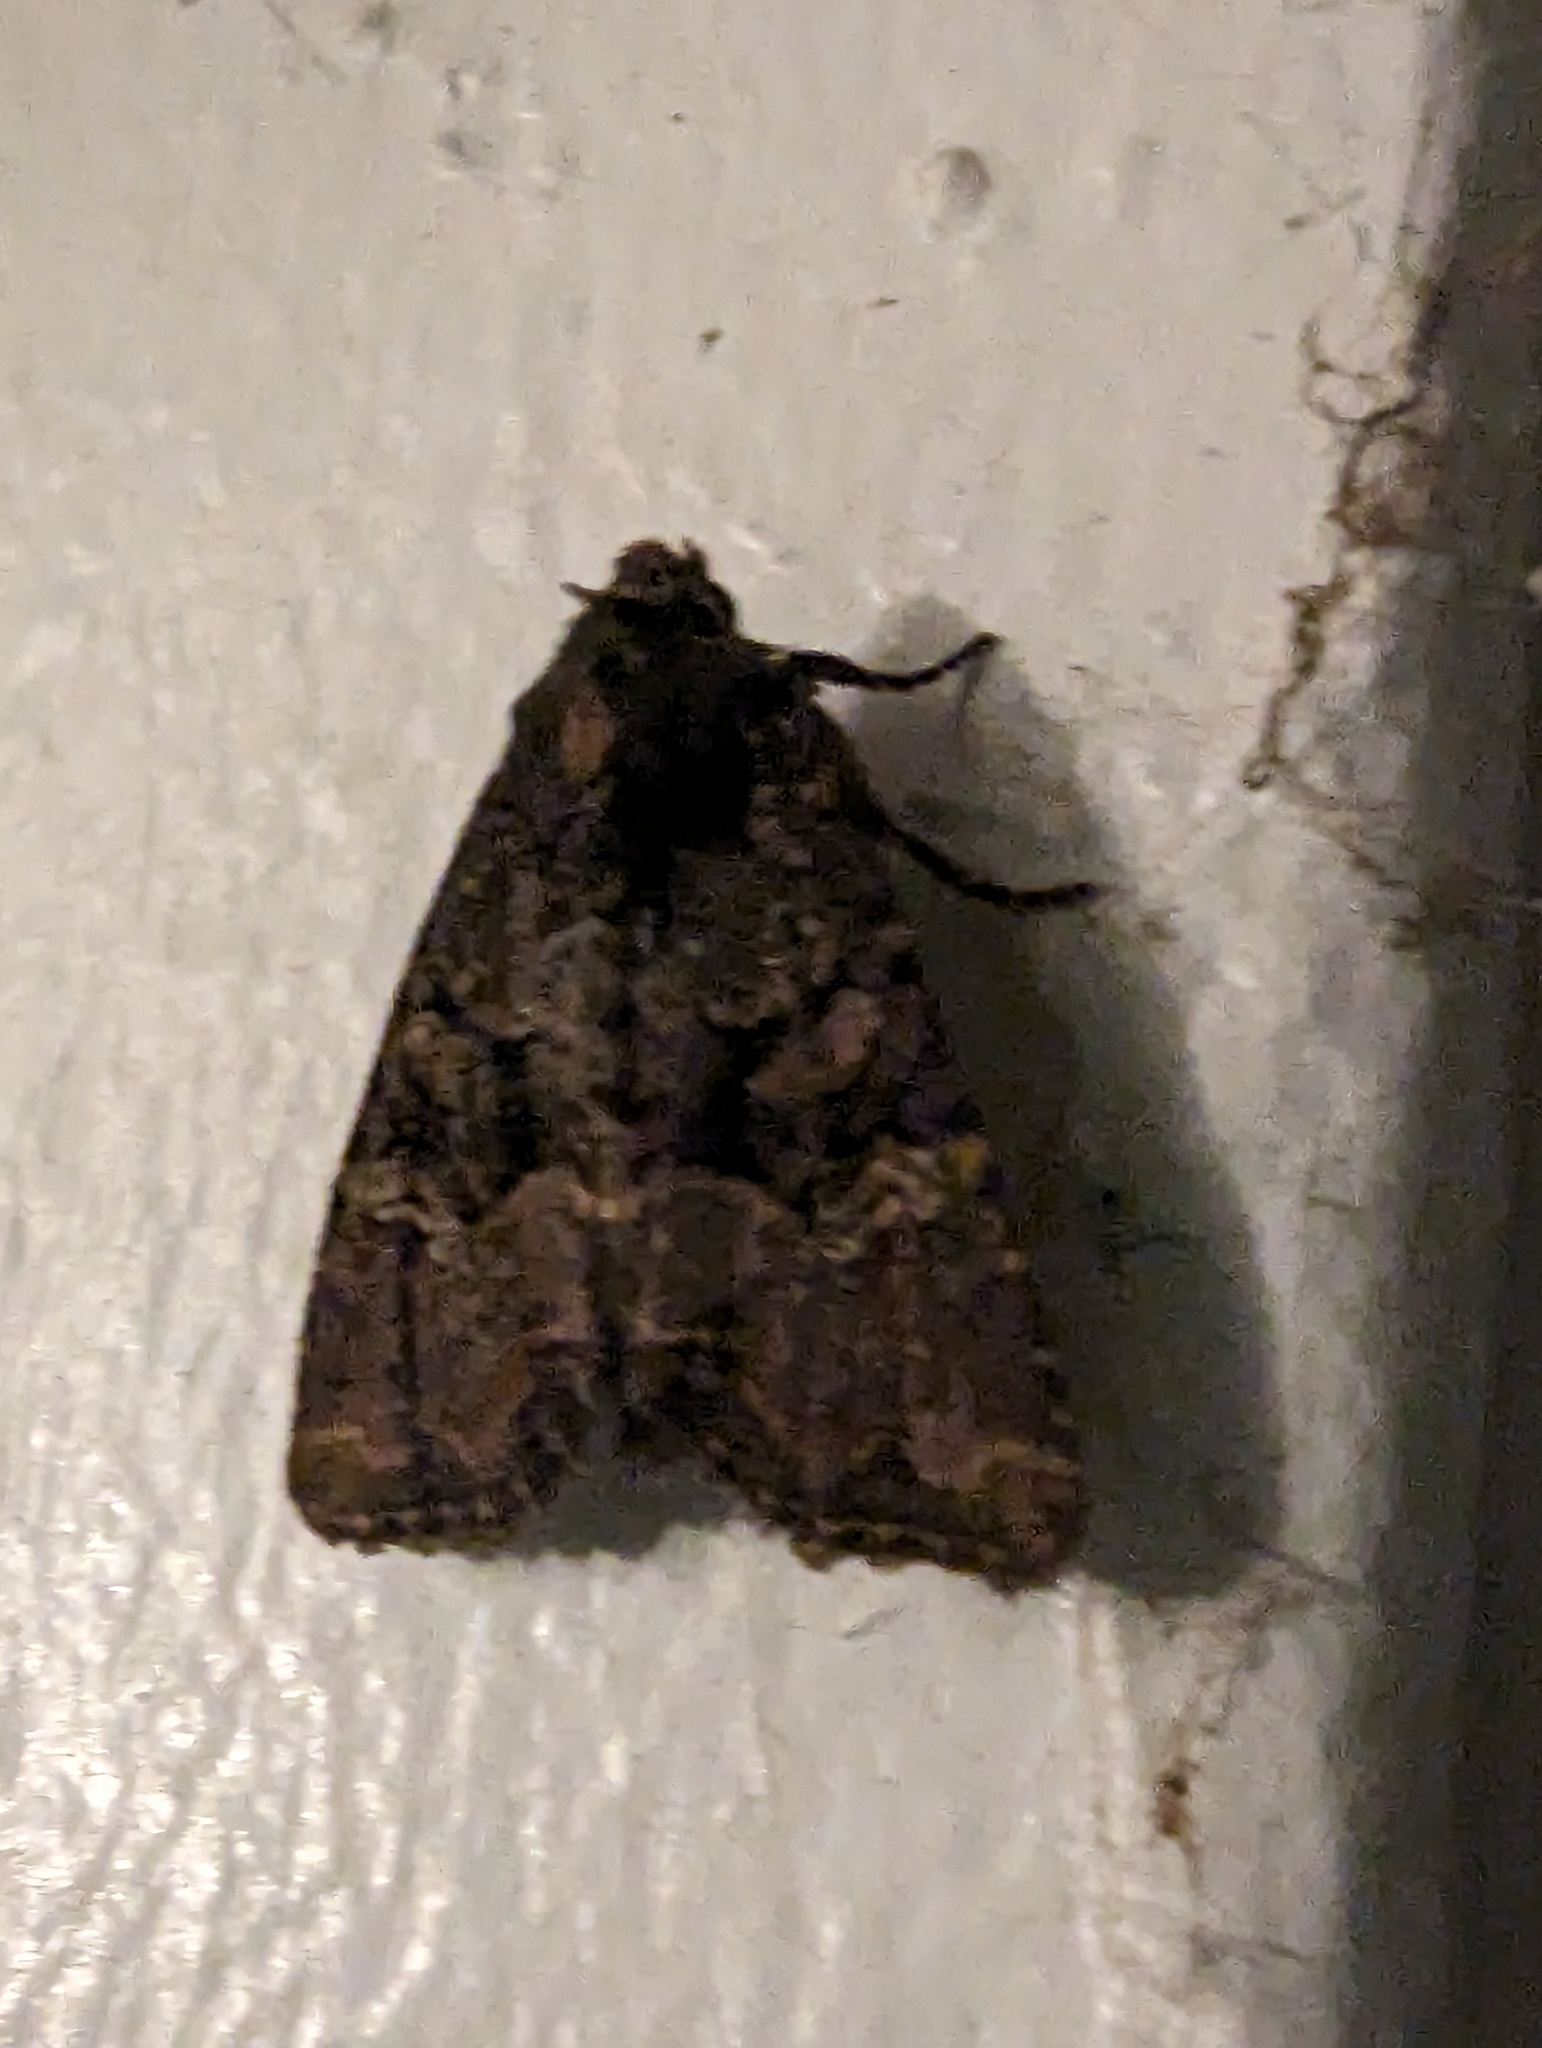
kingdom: Animalia
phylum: Arthropoda
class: Insecta
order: Lepidoptera
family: Noctuidae
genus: Mesapamea
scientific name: Mesapamea secalis
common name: Common rustic
